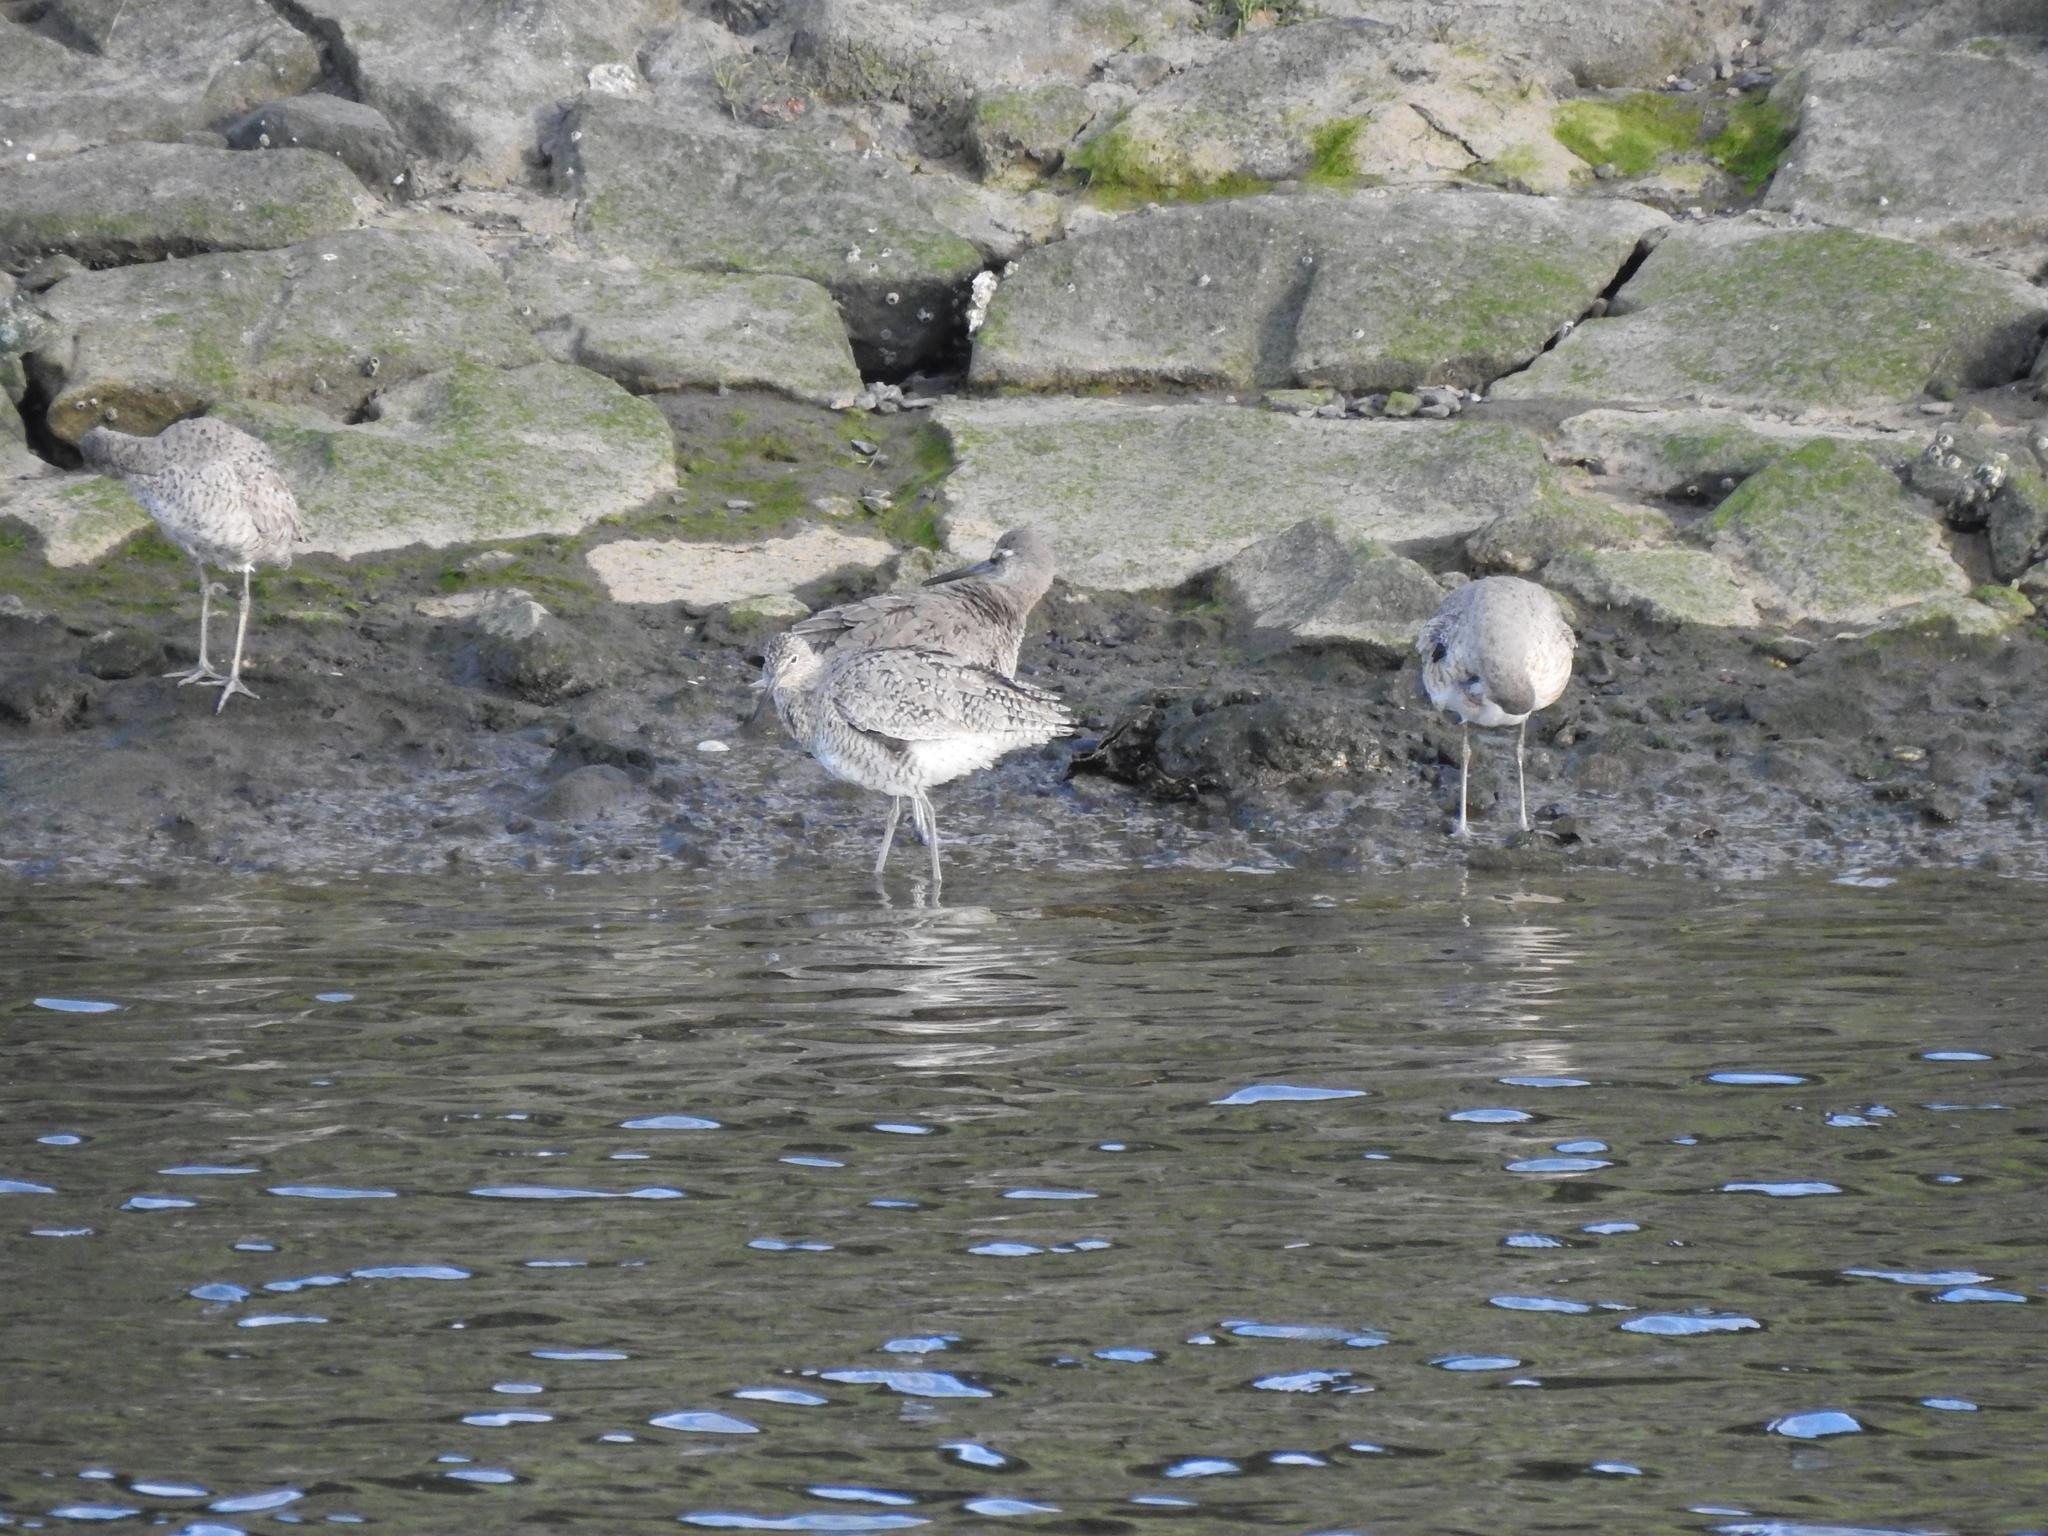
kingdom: Animalia
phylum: Chordata
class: Aves
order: Charadriiformes
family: Scolopacidae
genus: Tringa
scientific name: Tringa semipalmata
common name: Willet
